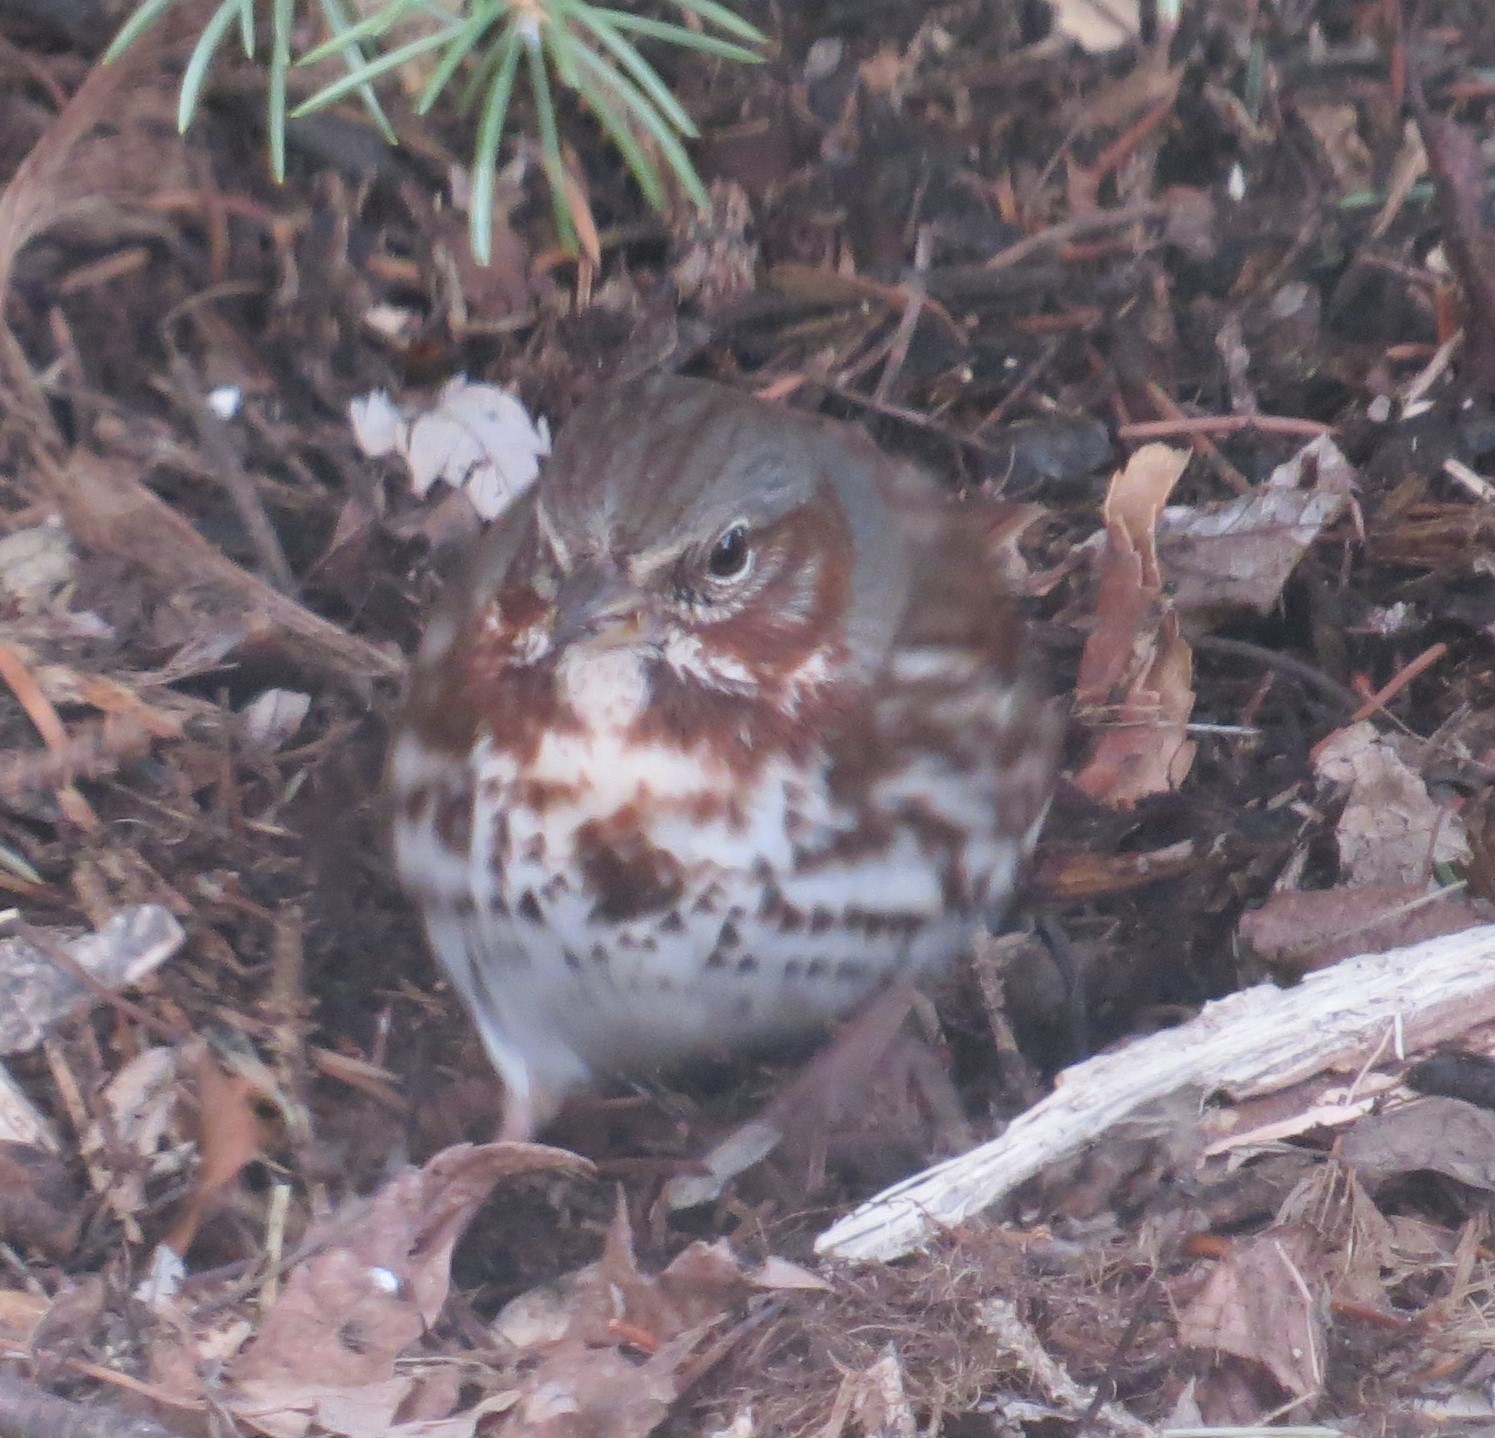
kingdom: Animalia
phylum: Chordata
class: Aves
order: Passeriformes
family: Passerellidae
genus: Passerella
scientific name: Passerella iliaca
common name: Fox sparrow
